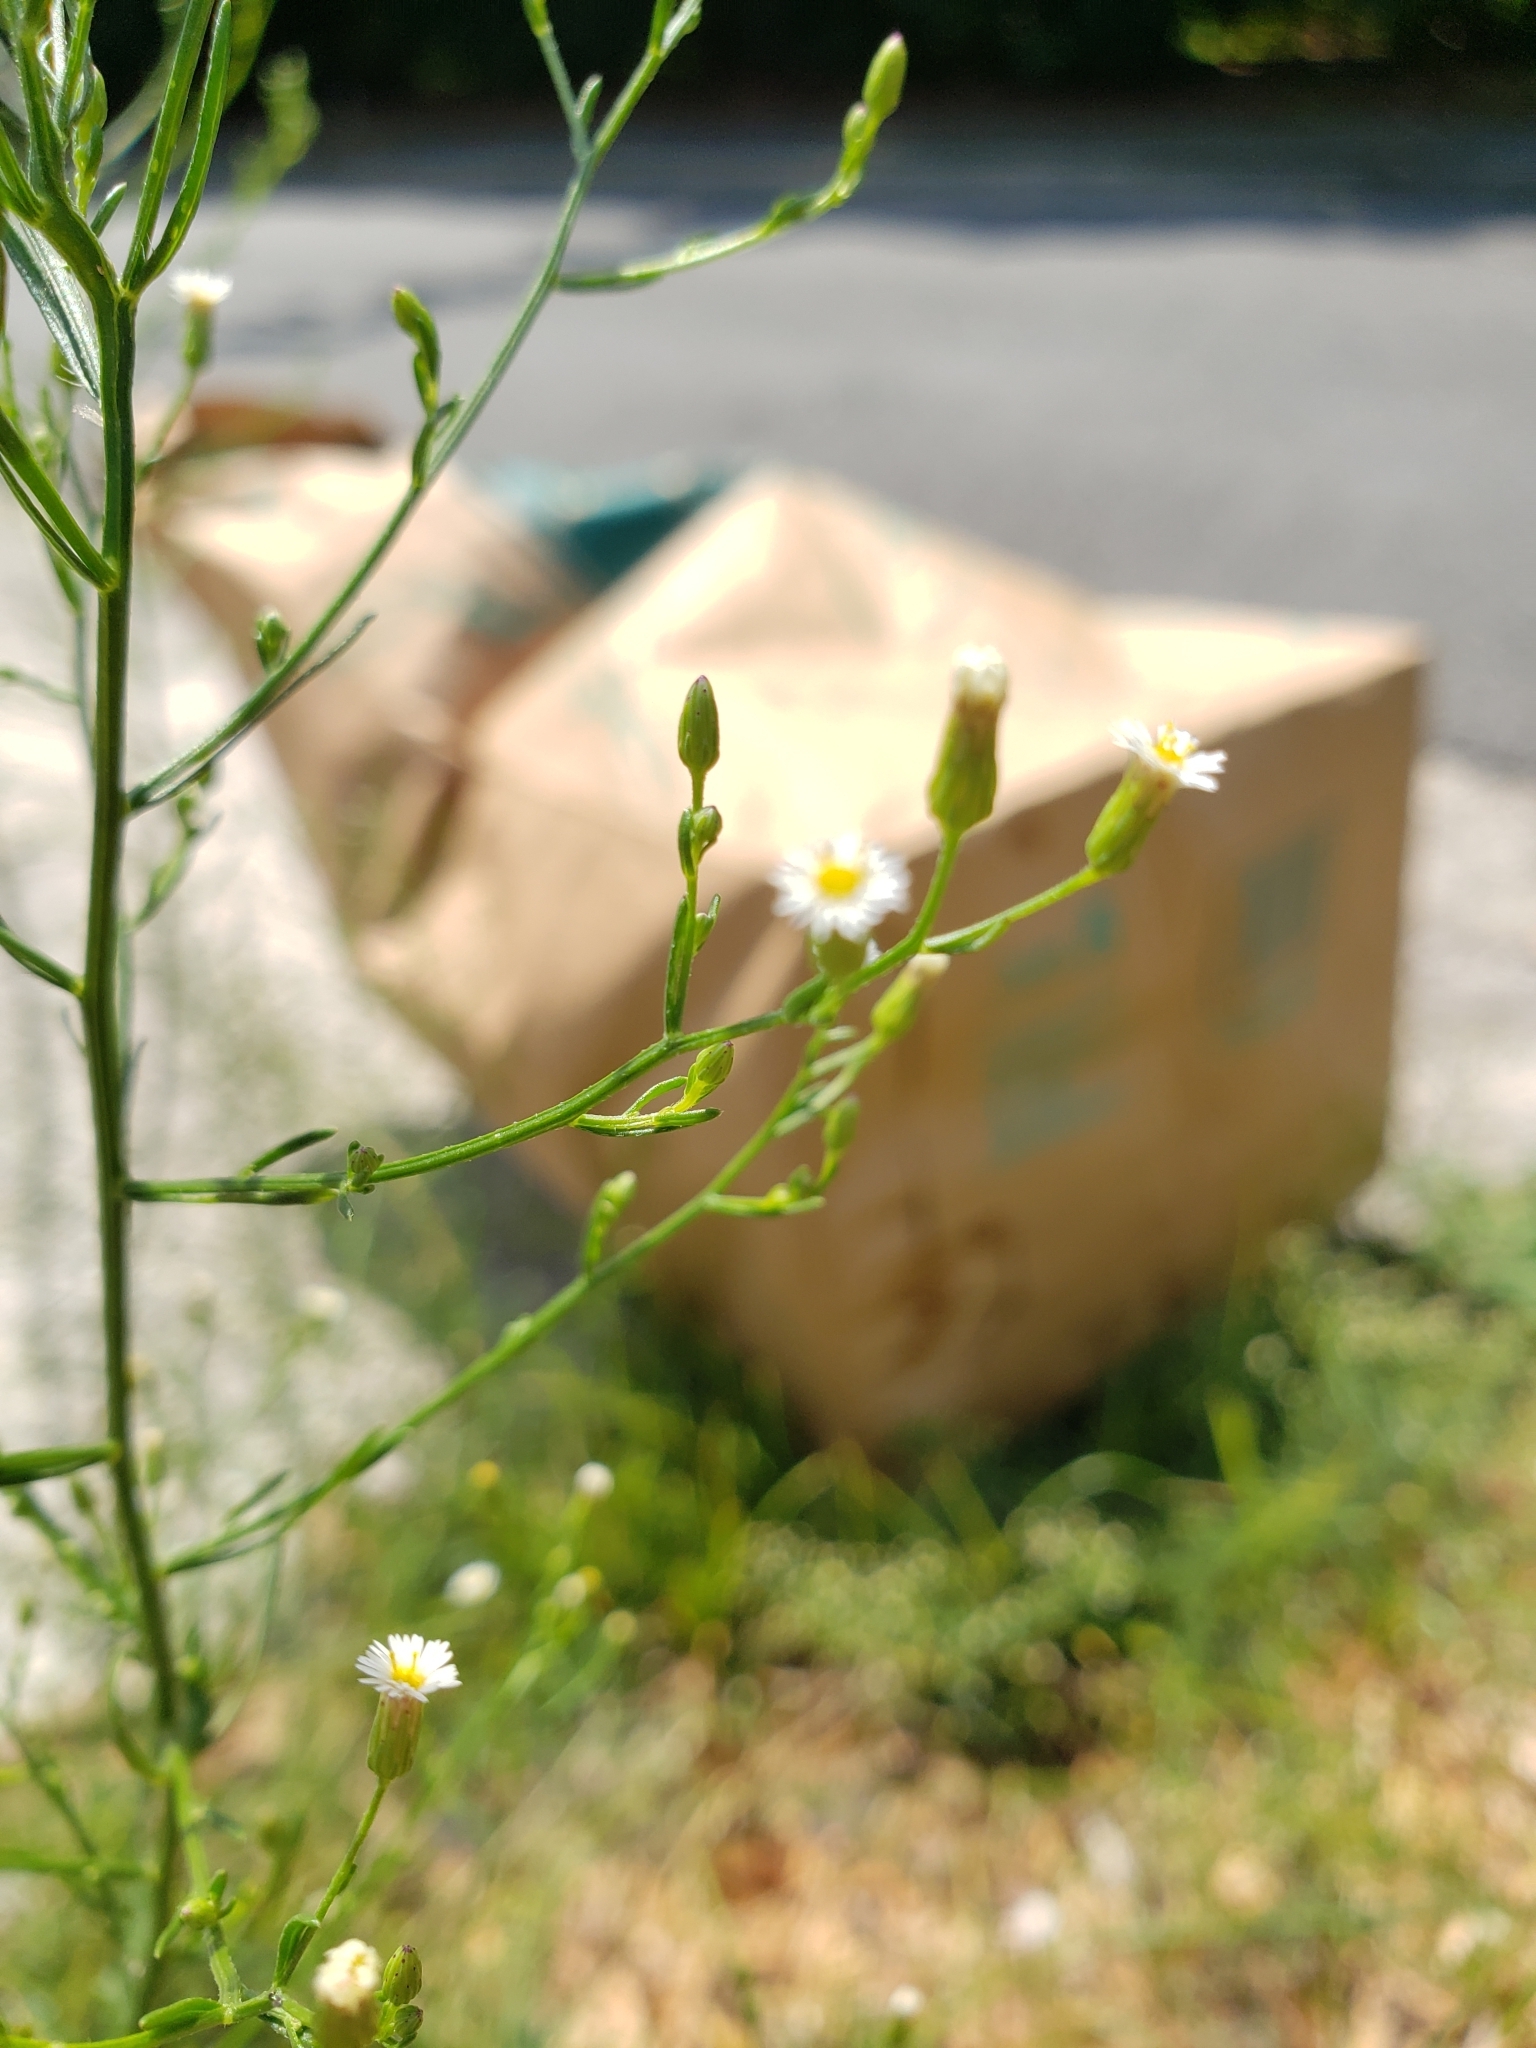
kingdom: Plantae
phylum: Tracheophyta
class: Magnoliopsida
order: Asterales
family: Asteraceae
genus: Boltonia
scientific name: Boltonia diffusa
